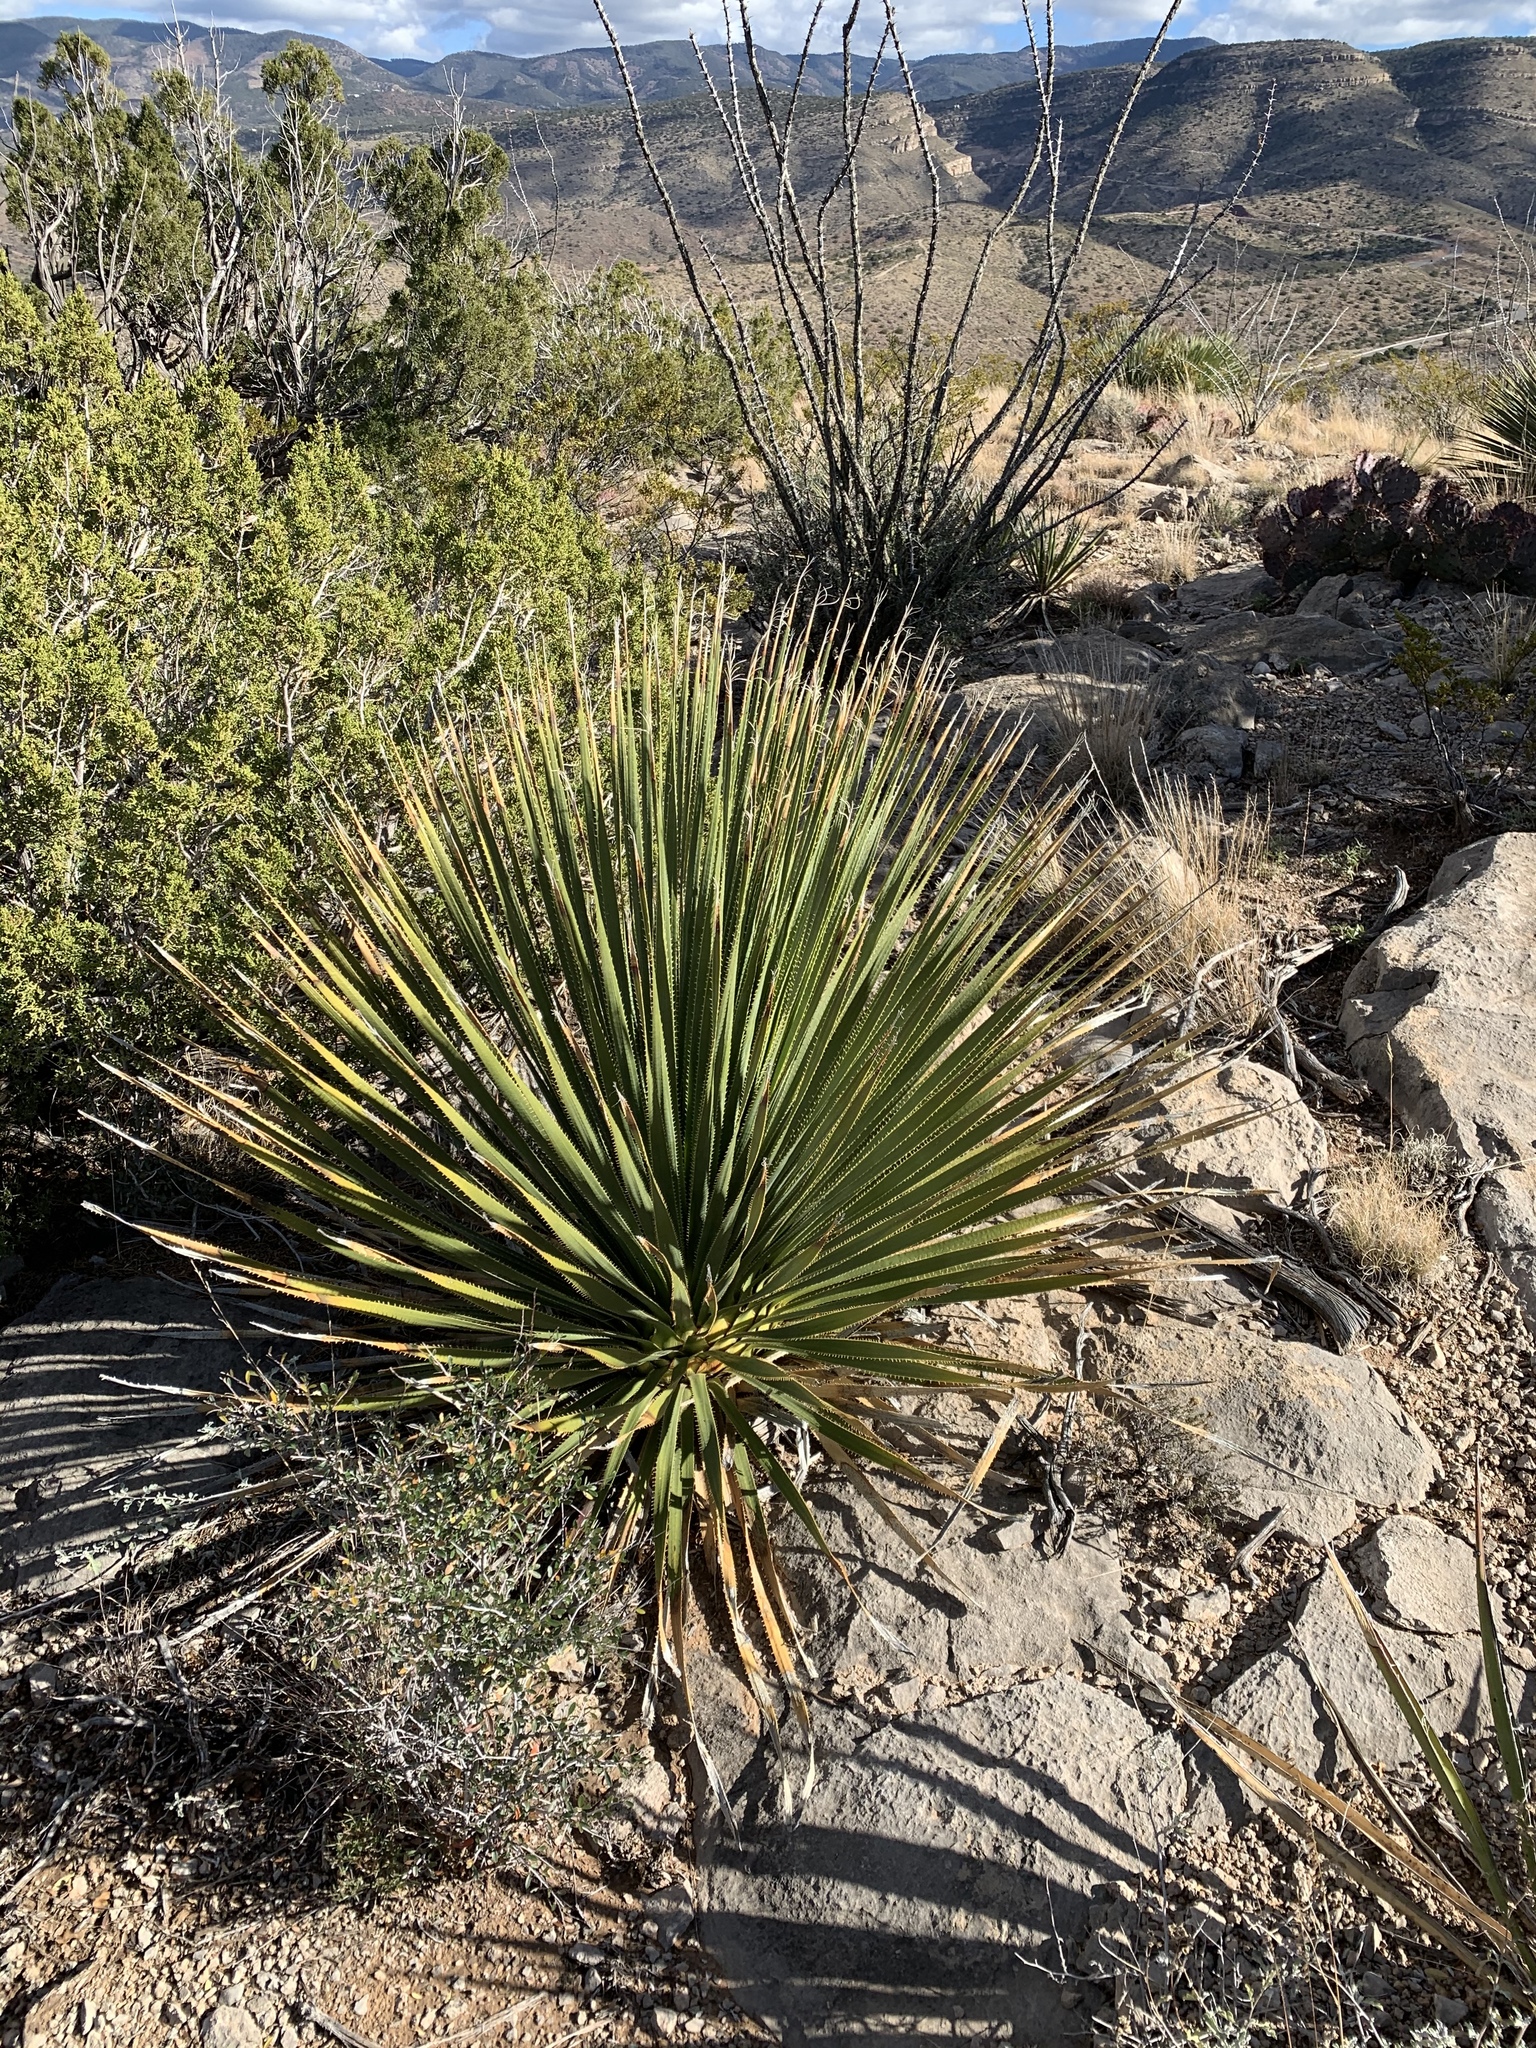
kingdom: Plantae
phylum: Tracheophyta
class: Liliopsida
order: Asparagales
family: Asparagaceae
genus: Dasylirion
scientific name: Dasylirion wheeleri
